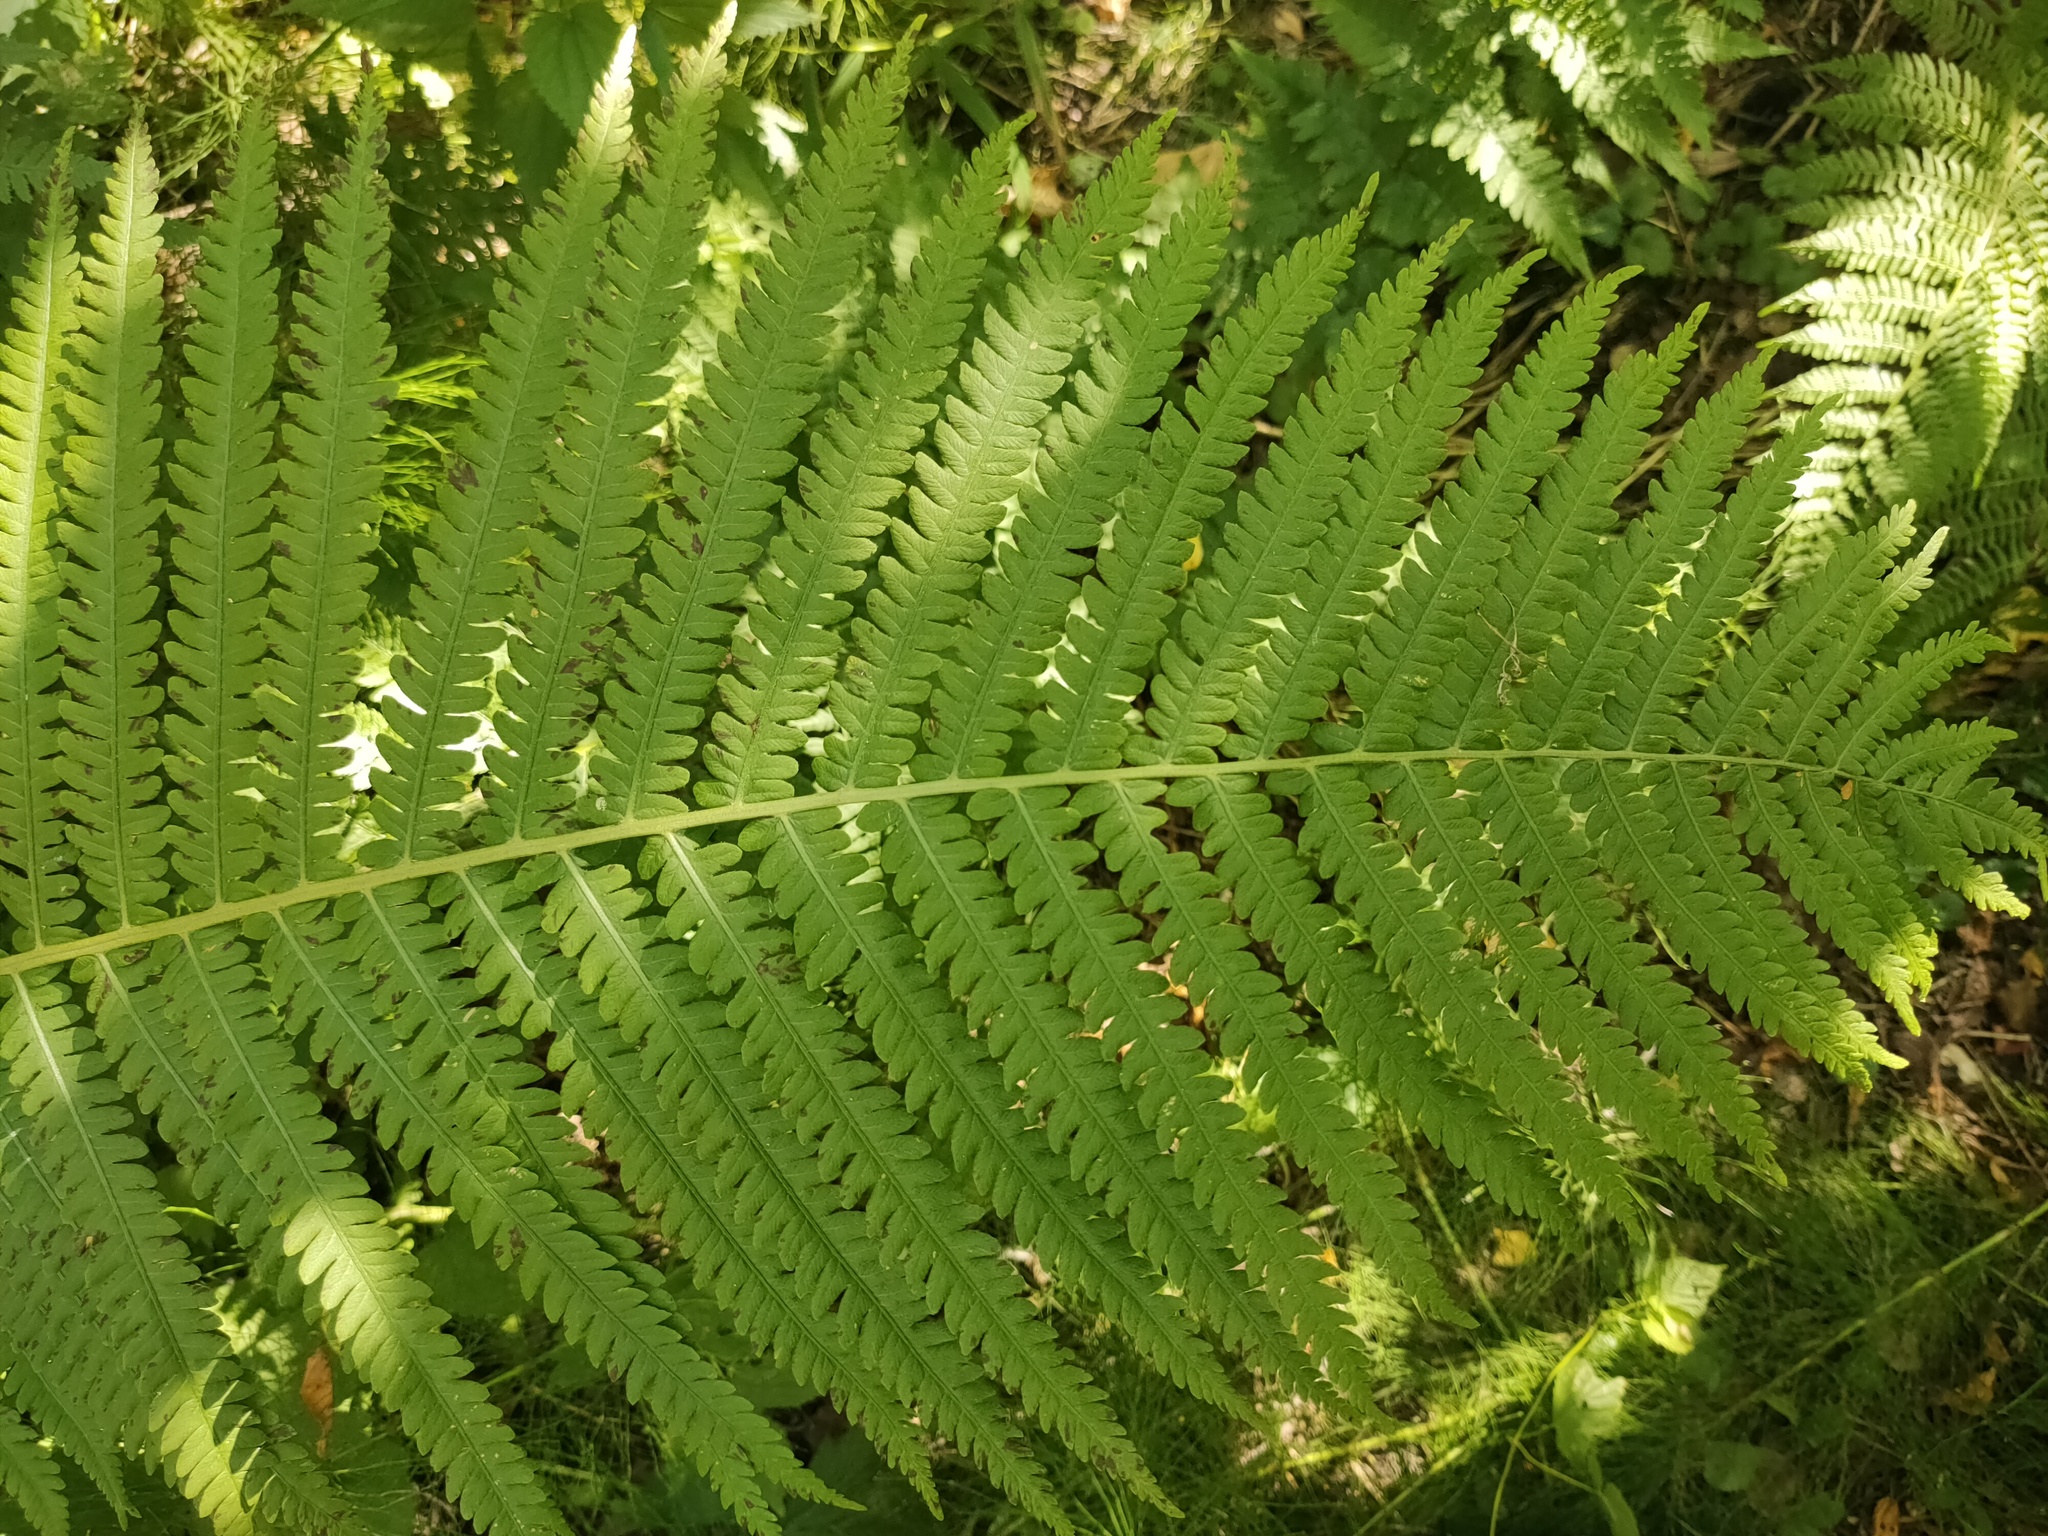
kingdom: Plantae
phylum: Tracheophyta
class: Polypodiopsida
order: Polypodiales
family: Onocleaceae
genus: Matteuccia
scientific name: Matteuccia struthiopteris
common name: Ostrich fern
